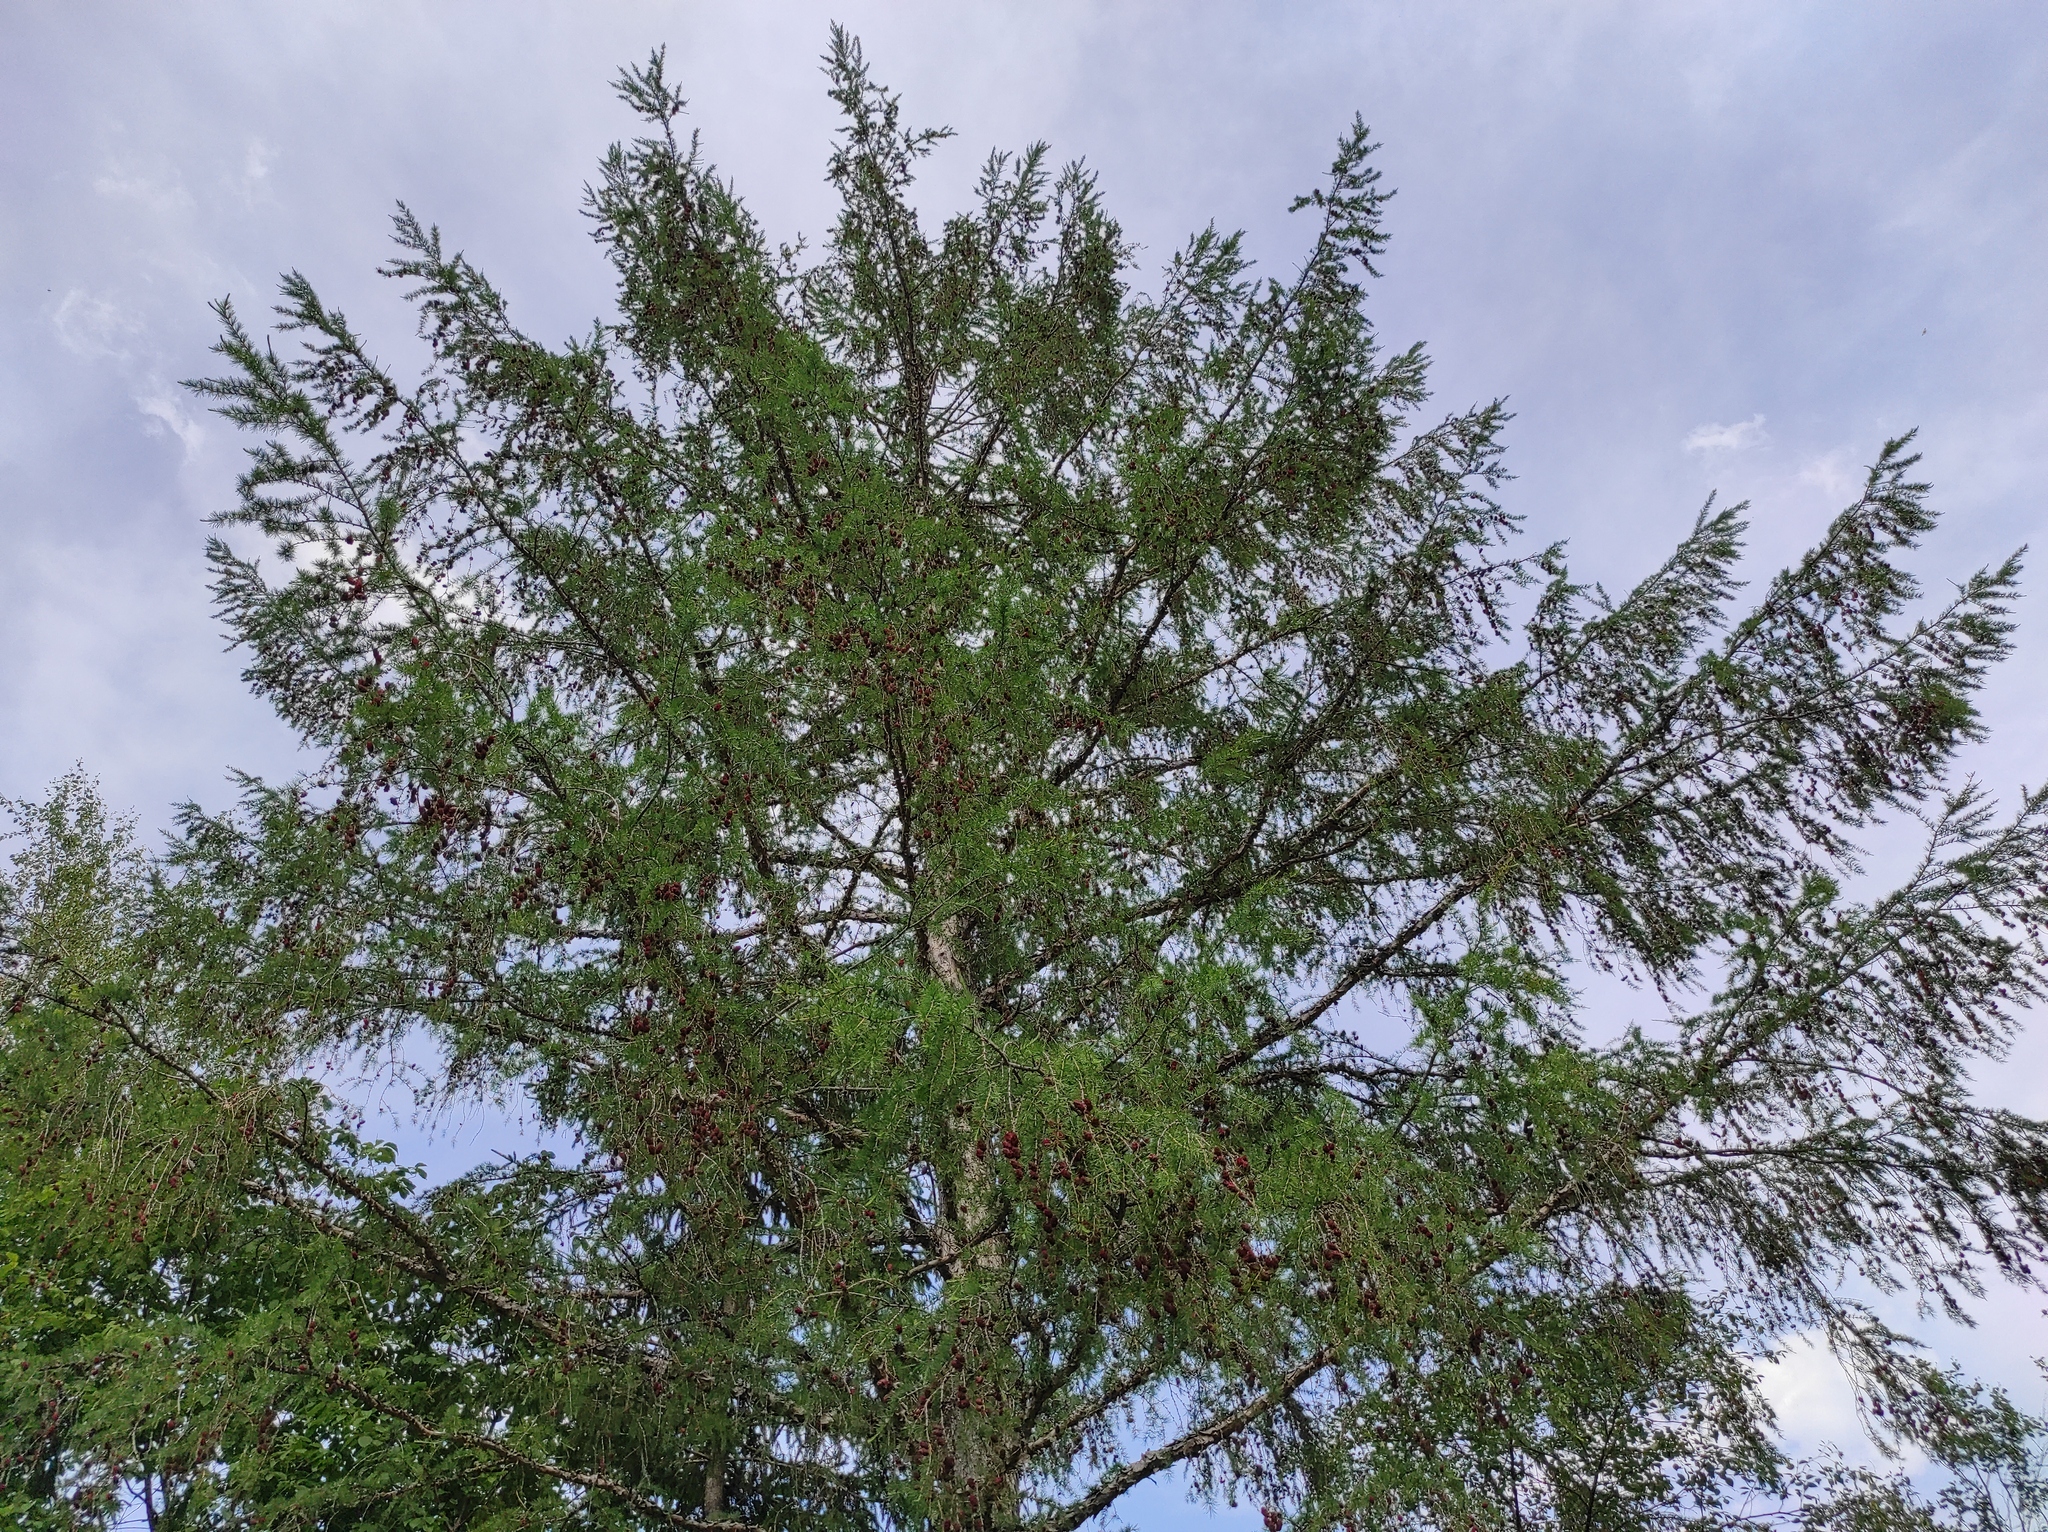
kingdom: Plantae
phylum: Tracheophyta
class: Pinopsida
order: Pinales
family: Pinaceae
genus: Larix
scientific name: Larix gmelinii
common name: Dahurian larch
